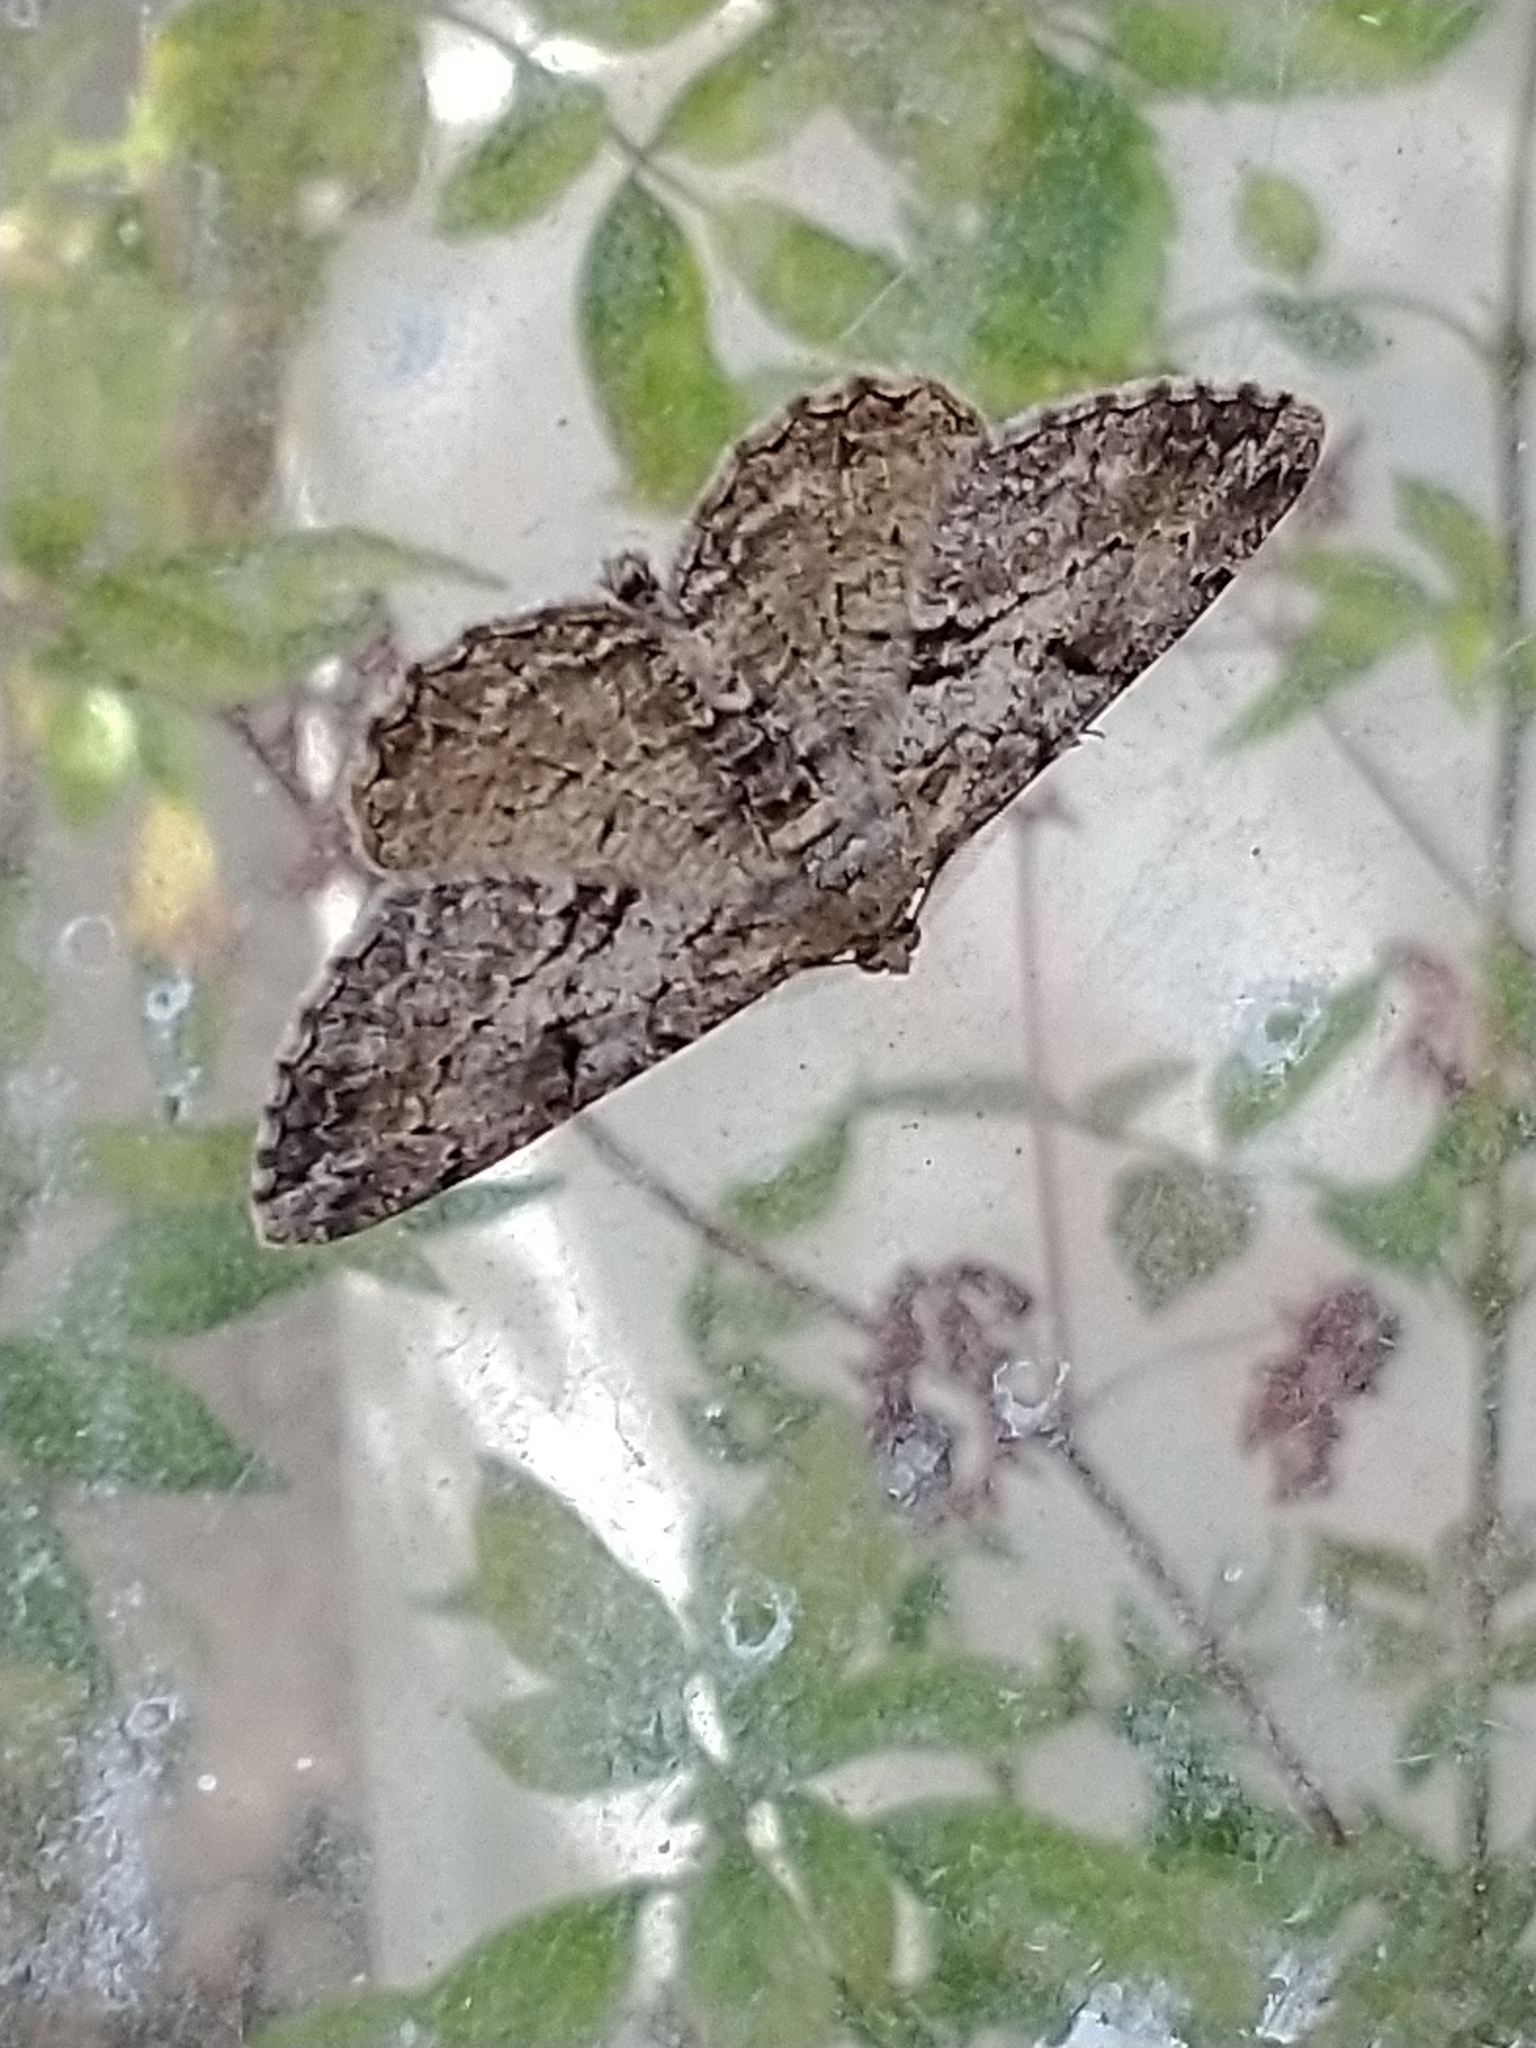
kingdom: Animalia
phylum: Arthropoda
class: Insecta
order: Lepidoptera
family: Geometridae
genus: Peribatodes
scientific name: Peribatodes rhomboidaria
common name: Willow beauty
